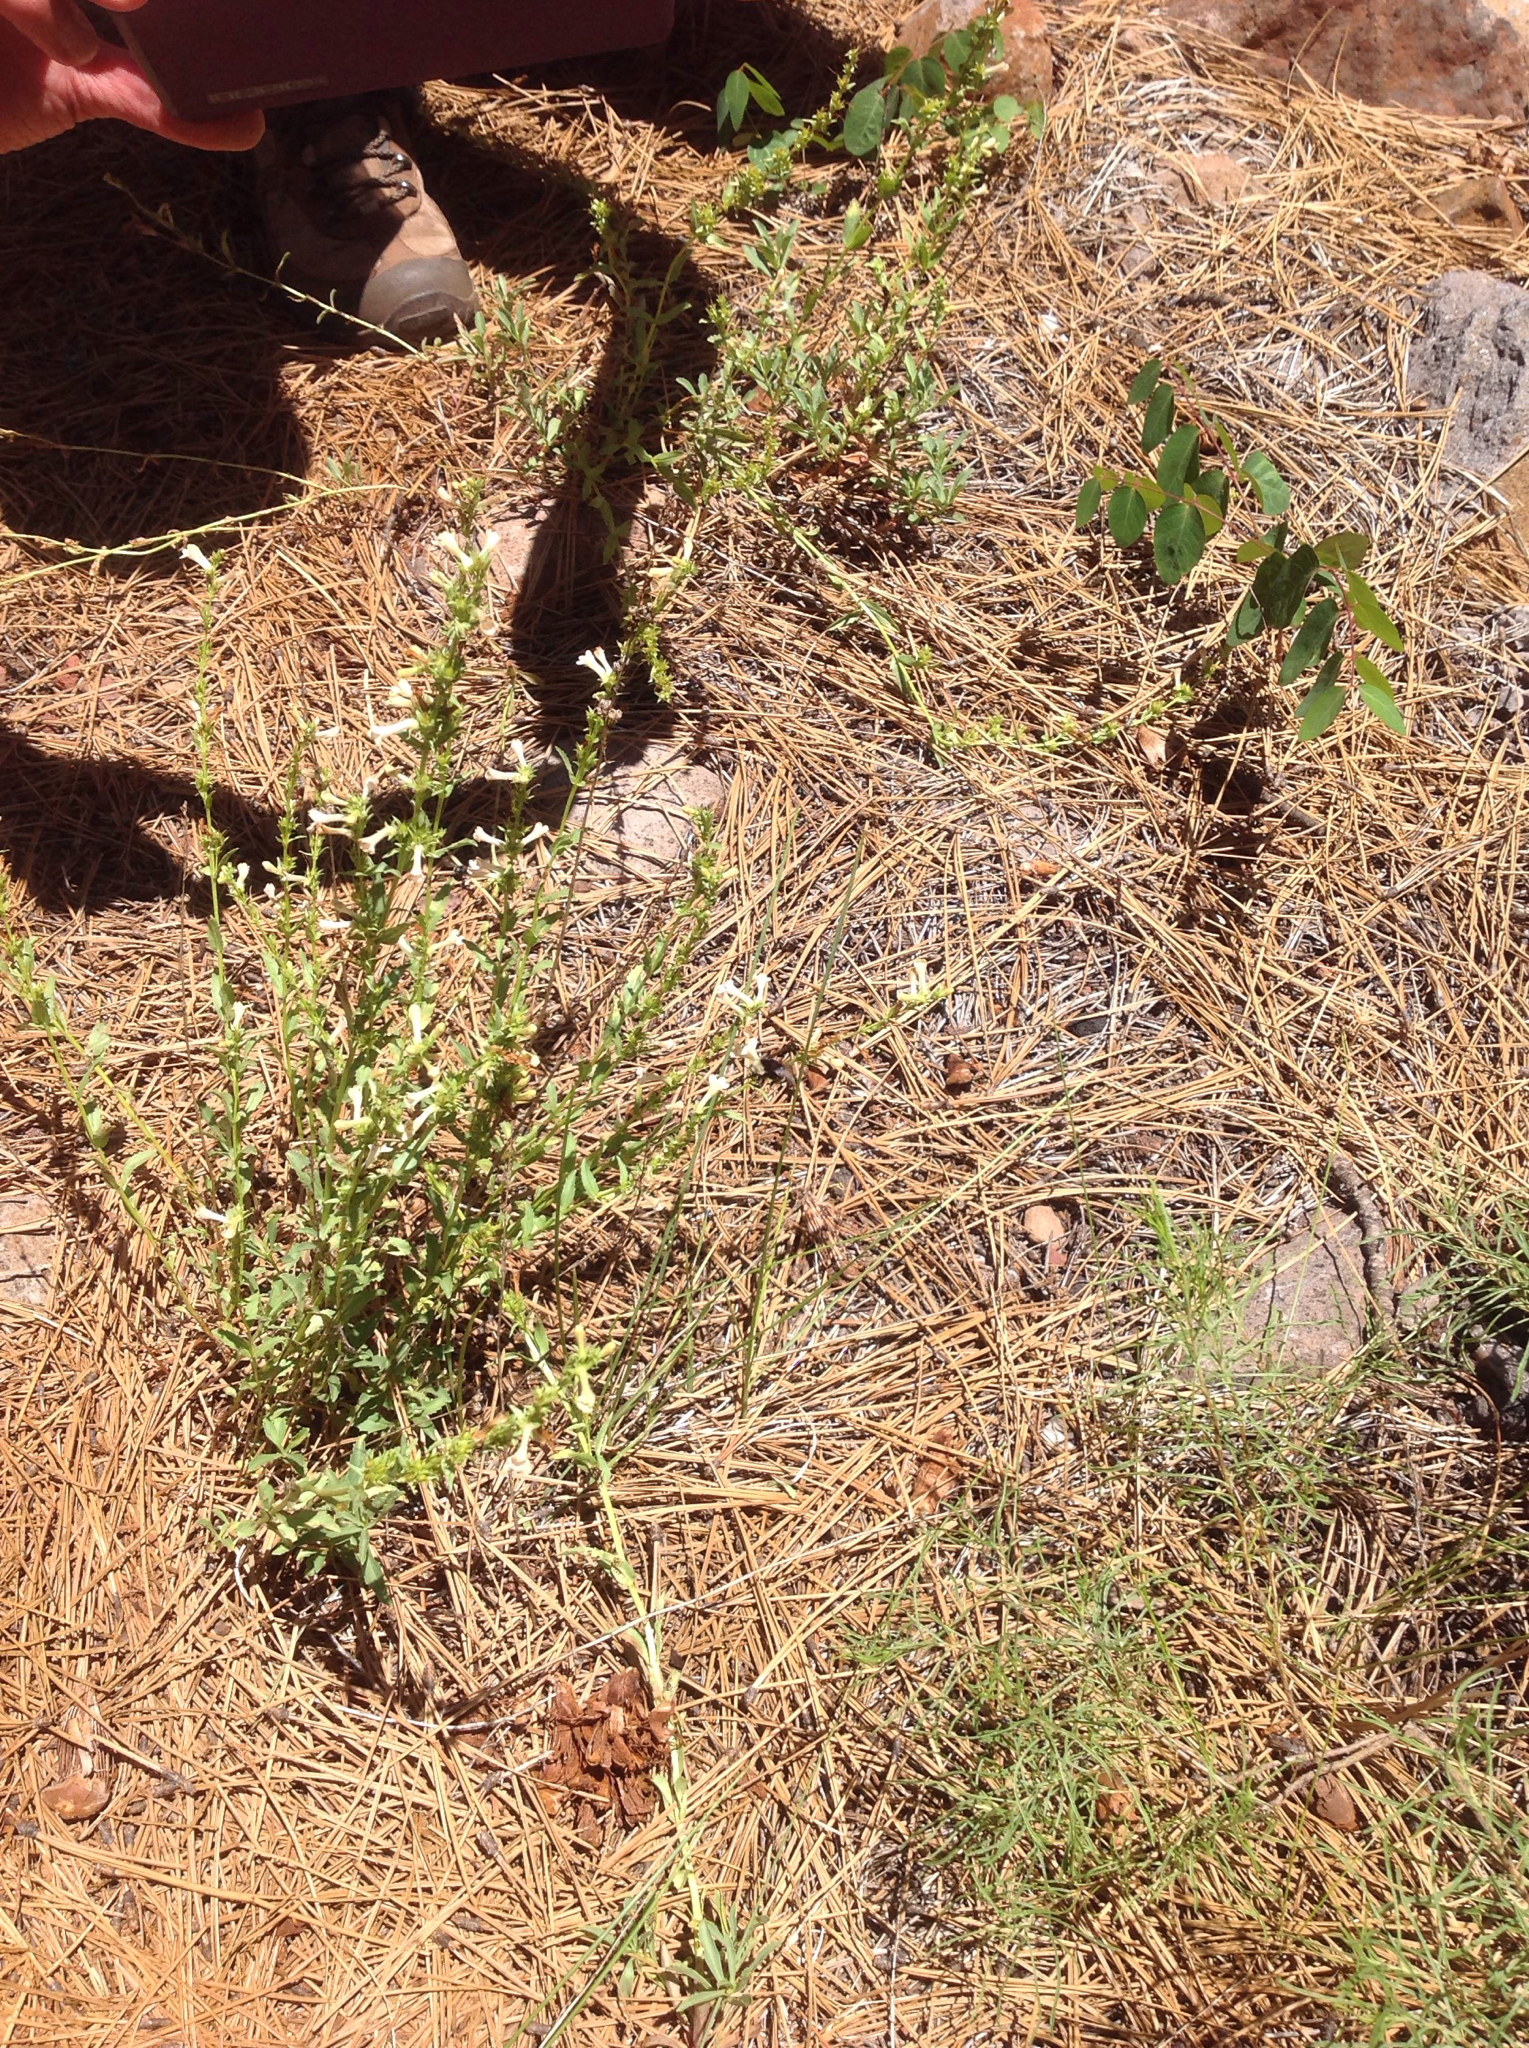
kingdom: Plantae
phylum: Tracheophyta
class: Magnoliopsida
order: Lamiales
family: Plantaginaceae
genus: Penstemon
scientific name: Penstemon deustus
